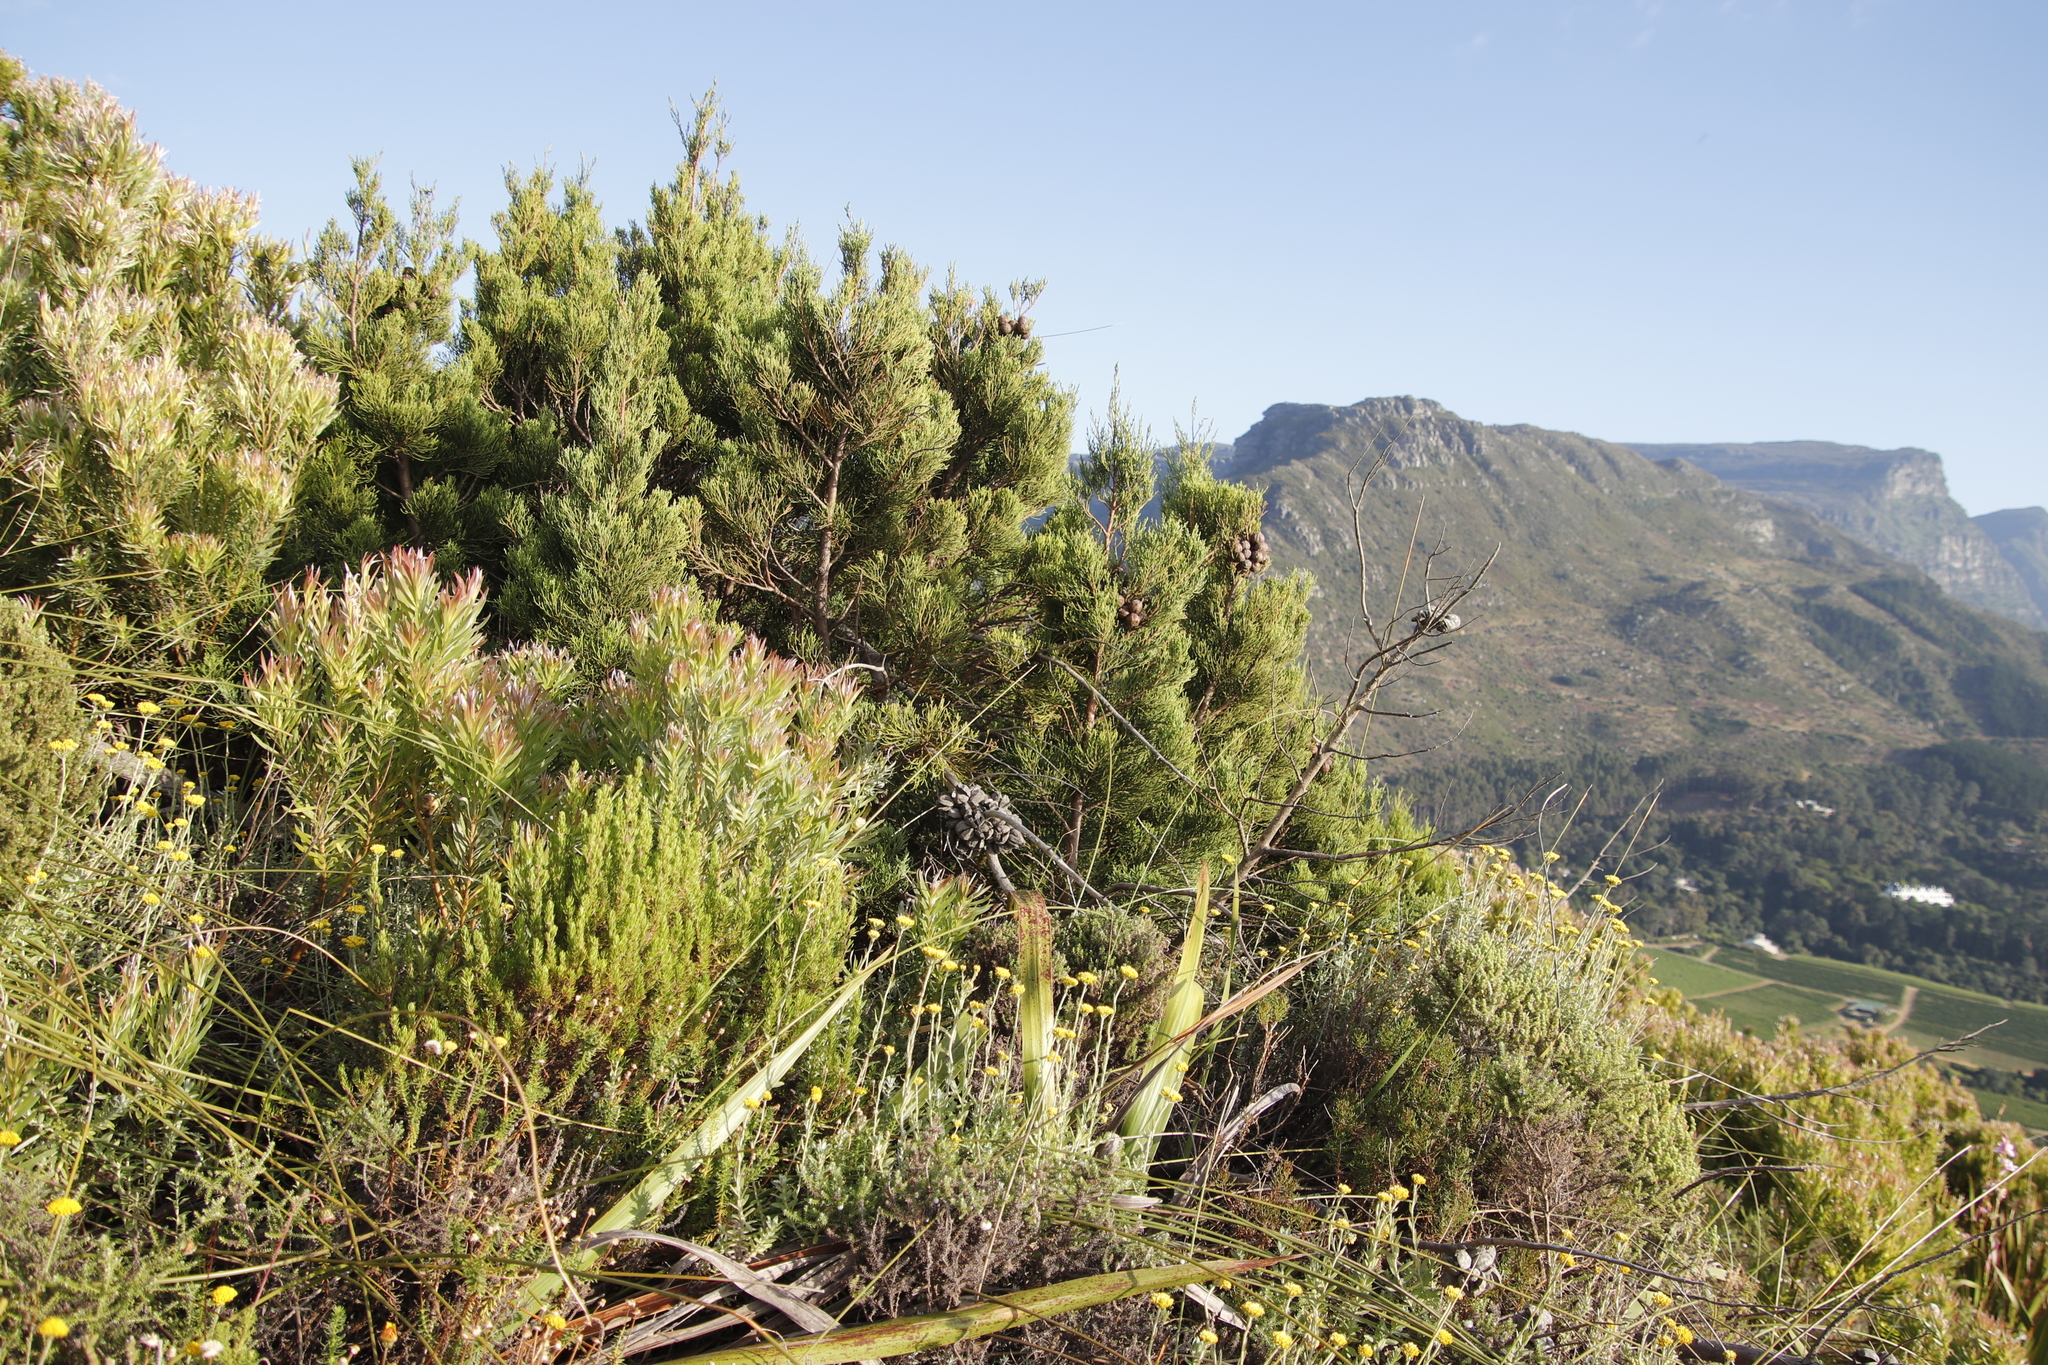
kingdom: Plantae
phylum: Tracheophyta
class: Pinopsida
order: Pinales
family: Cupressaceae
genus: Widdringtonia
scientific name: Widdringtonia nodiflora
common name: Cape cypress
